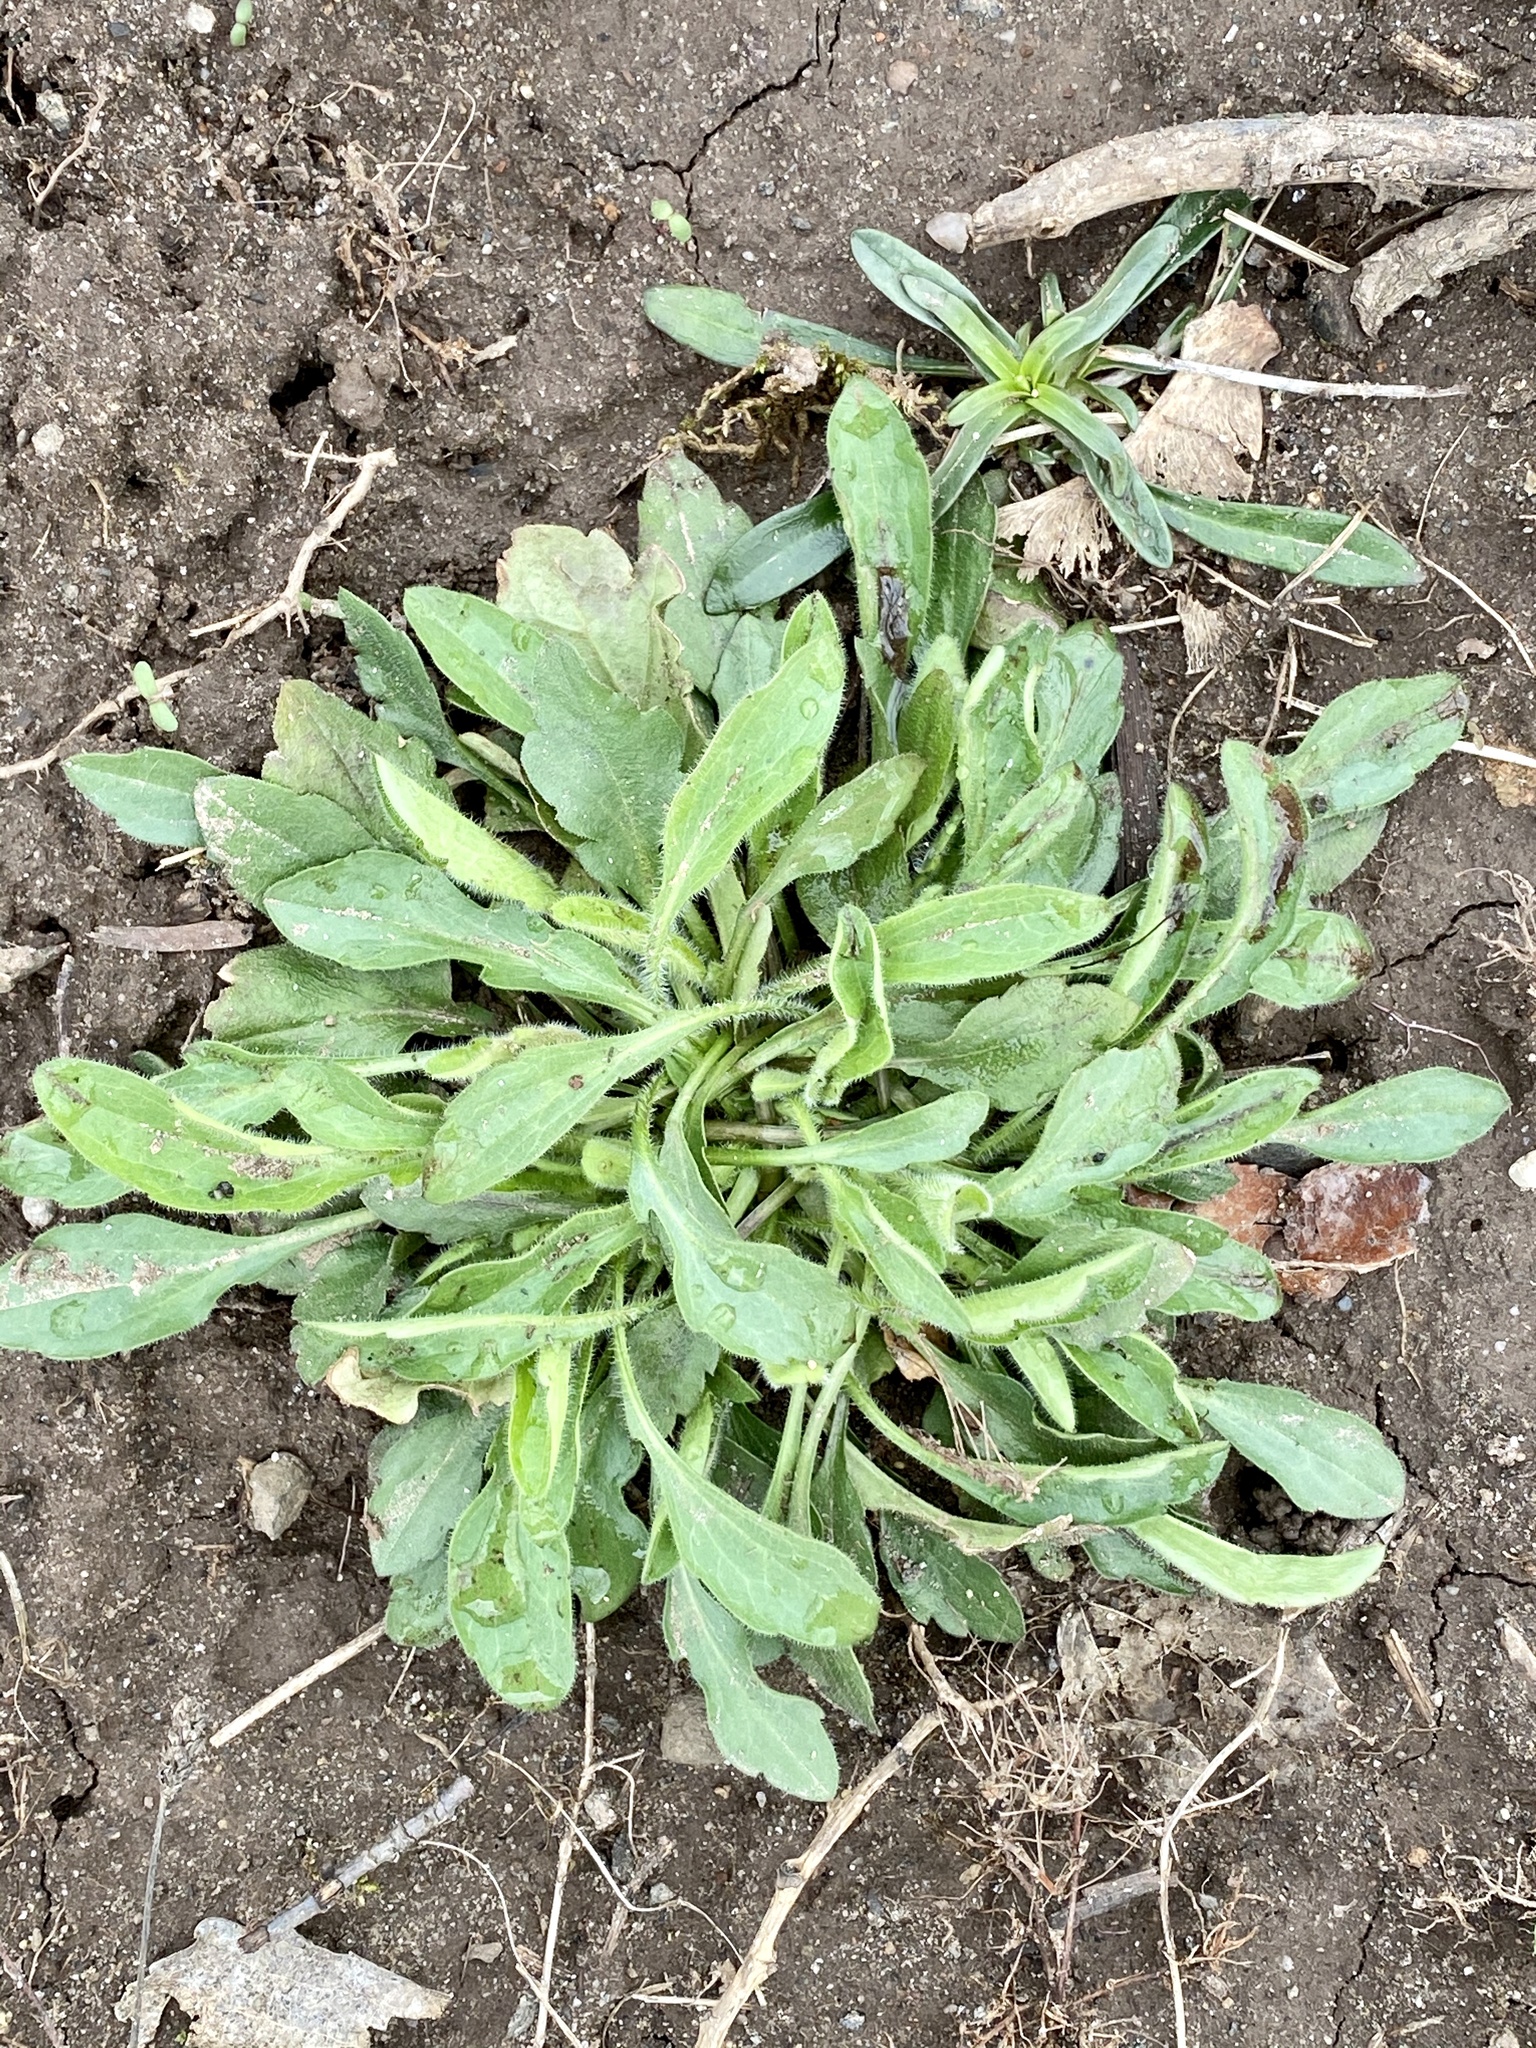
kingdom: Plantae
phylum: Tracheophyta
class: Magnoliopsida
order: Asterales
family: Asteraceae
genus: Erigeron
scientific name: Erigeron canadensis
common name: Canadian fleabane
